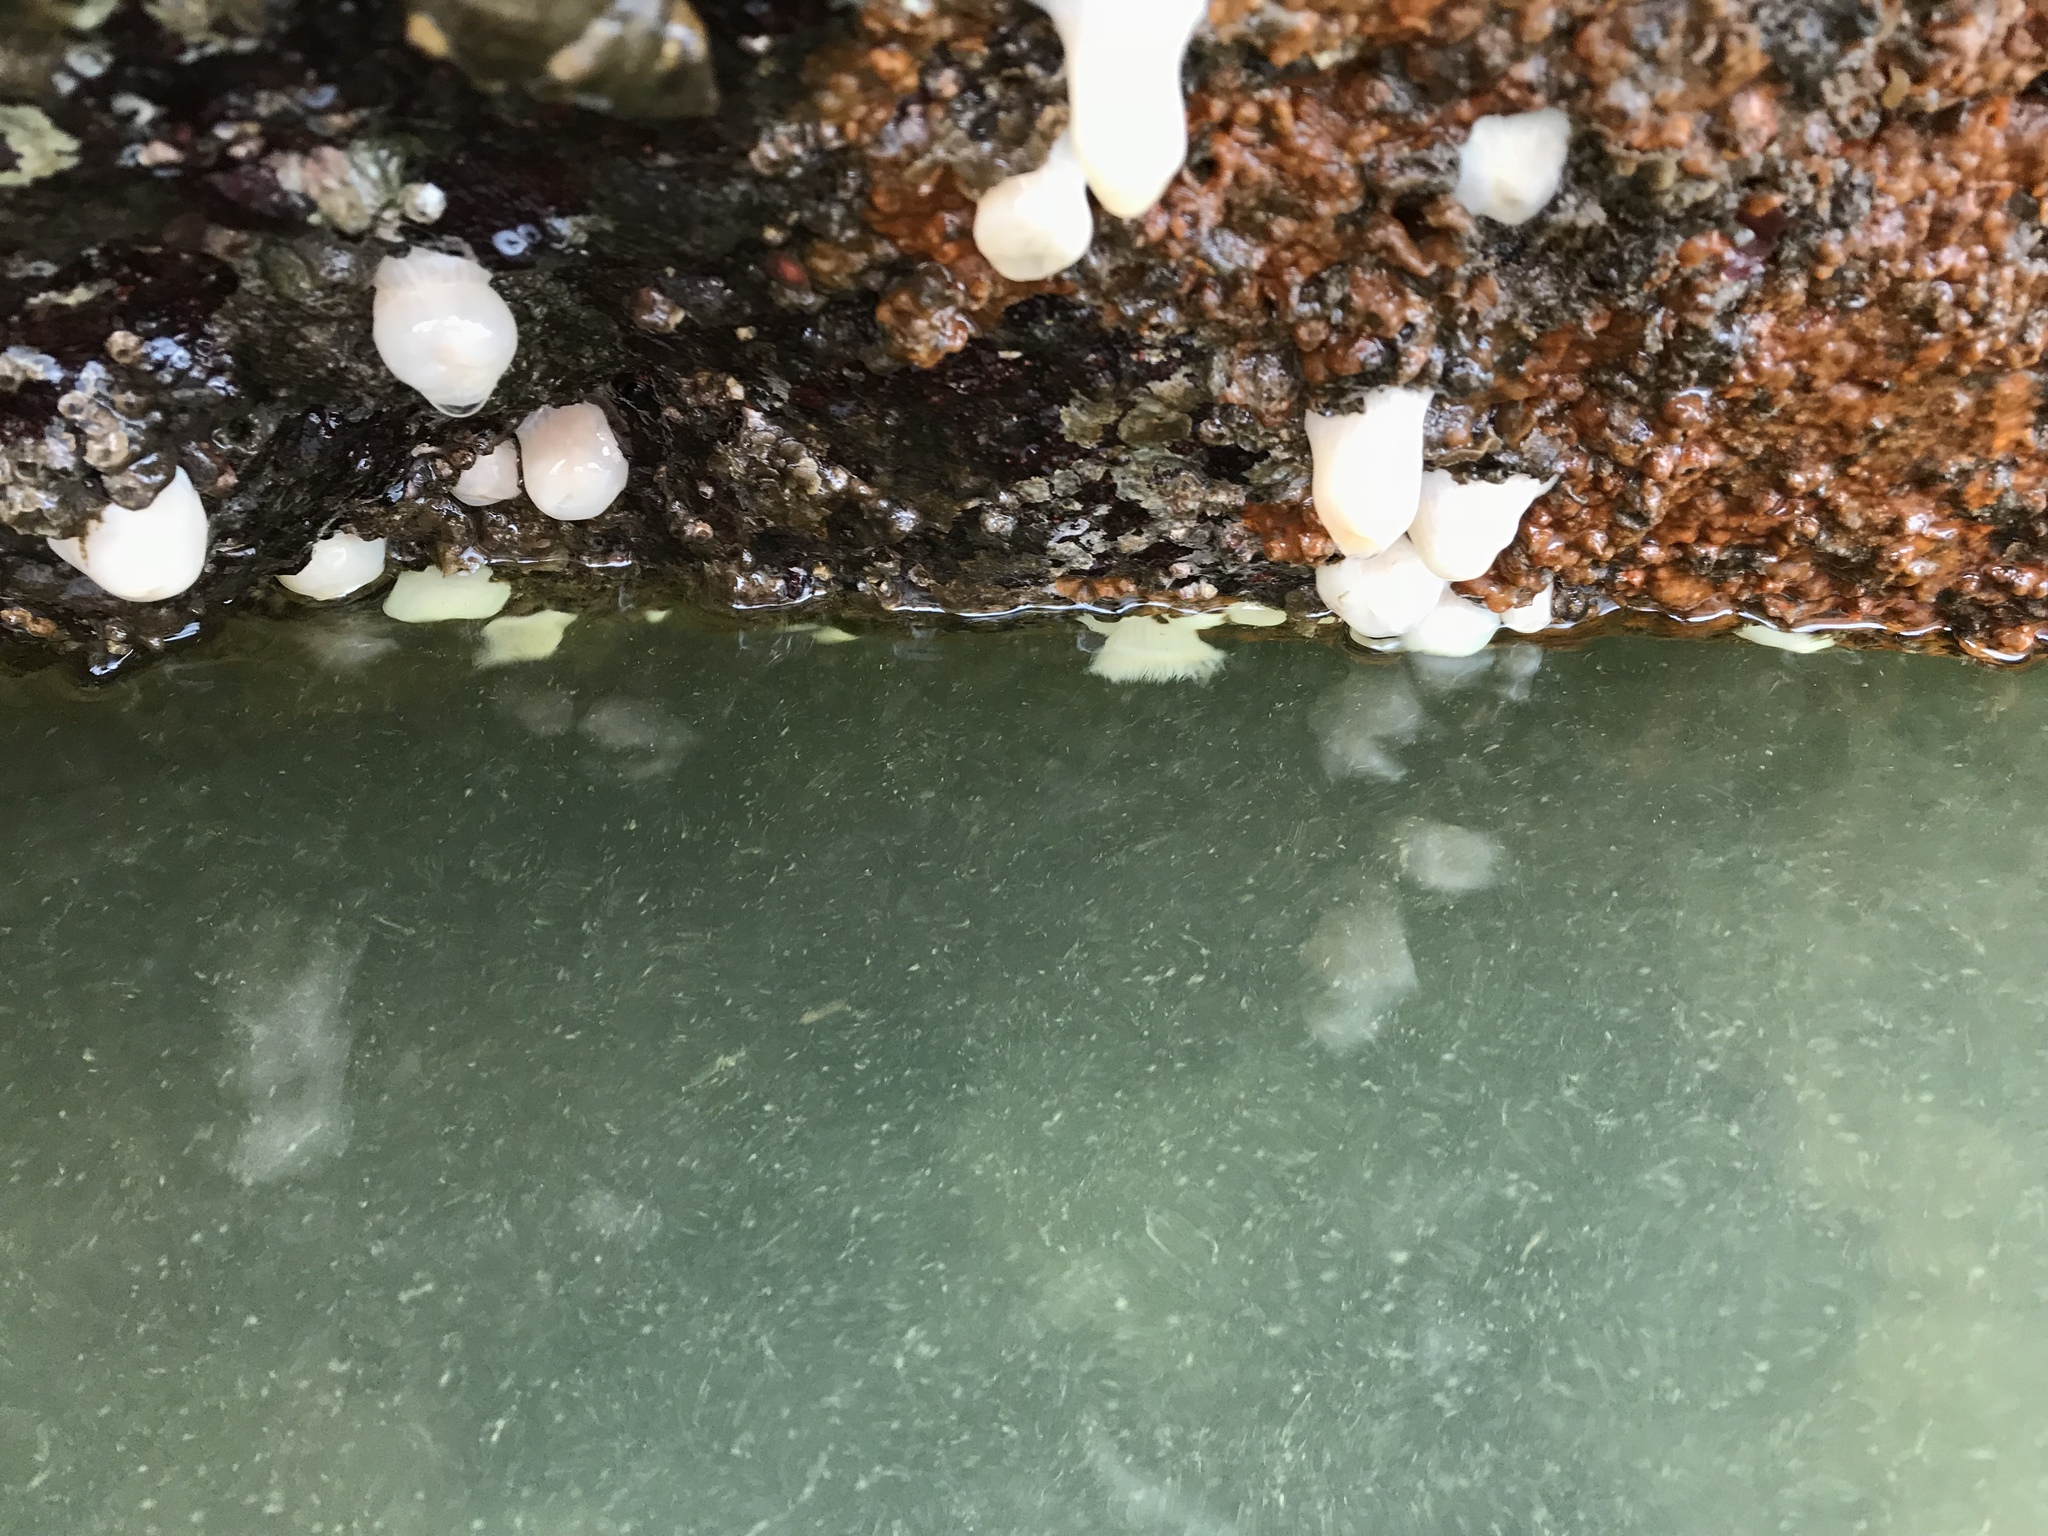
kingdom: Animalia
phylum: Cnidaria
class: Anthozoa
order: Actiniaria
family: Metridiidae
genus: Metridium
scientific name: Metridium senile
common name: Clonal plumose anemone
